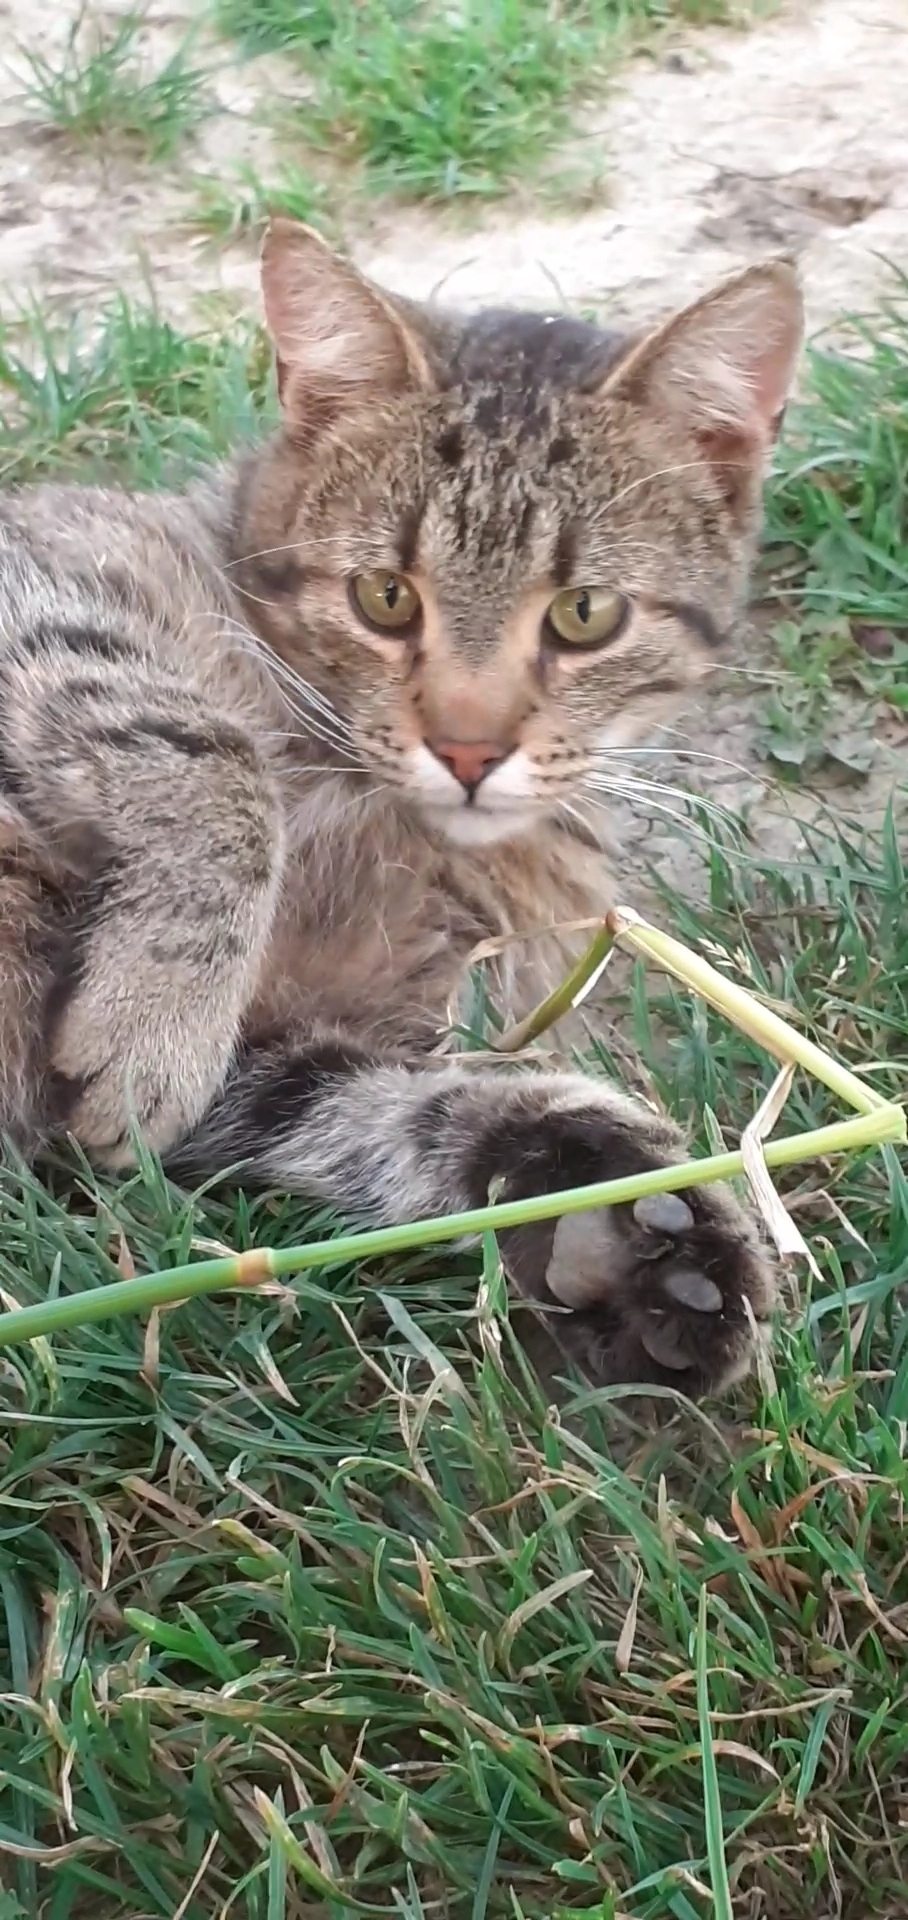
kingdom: Animalia
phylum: Chordata
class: Mammalia
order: Carnivora
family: Felidae
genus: Felis
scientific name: Felis catus
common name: Domestic cat
